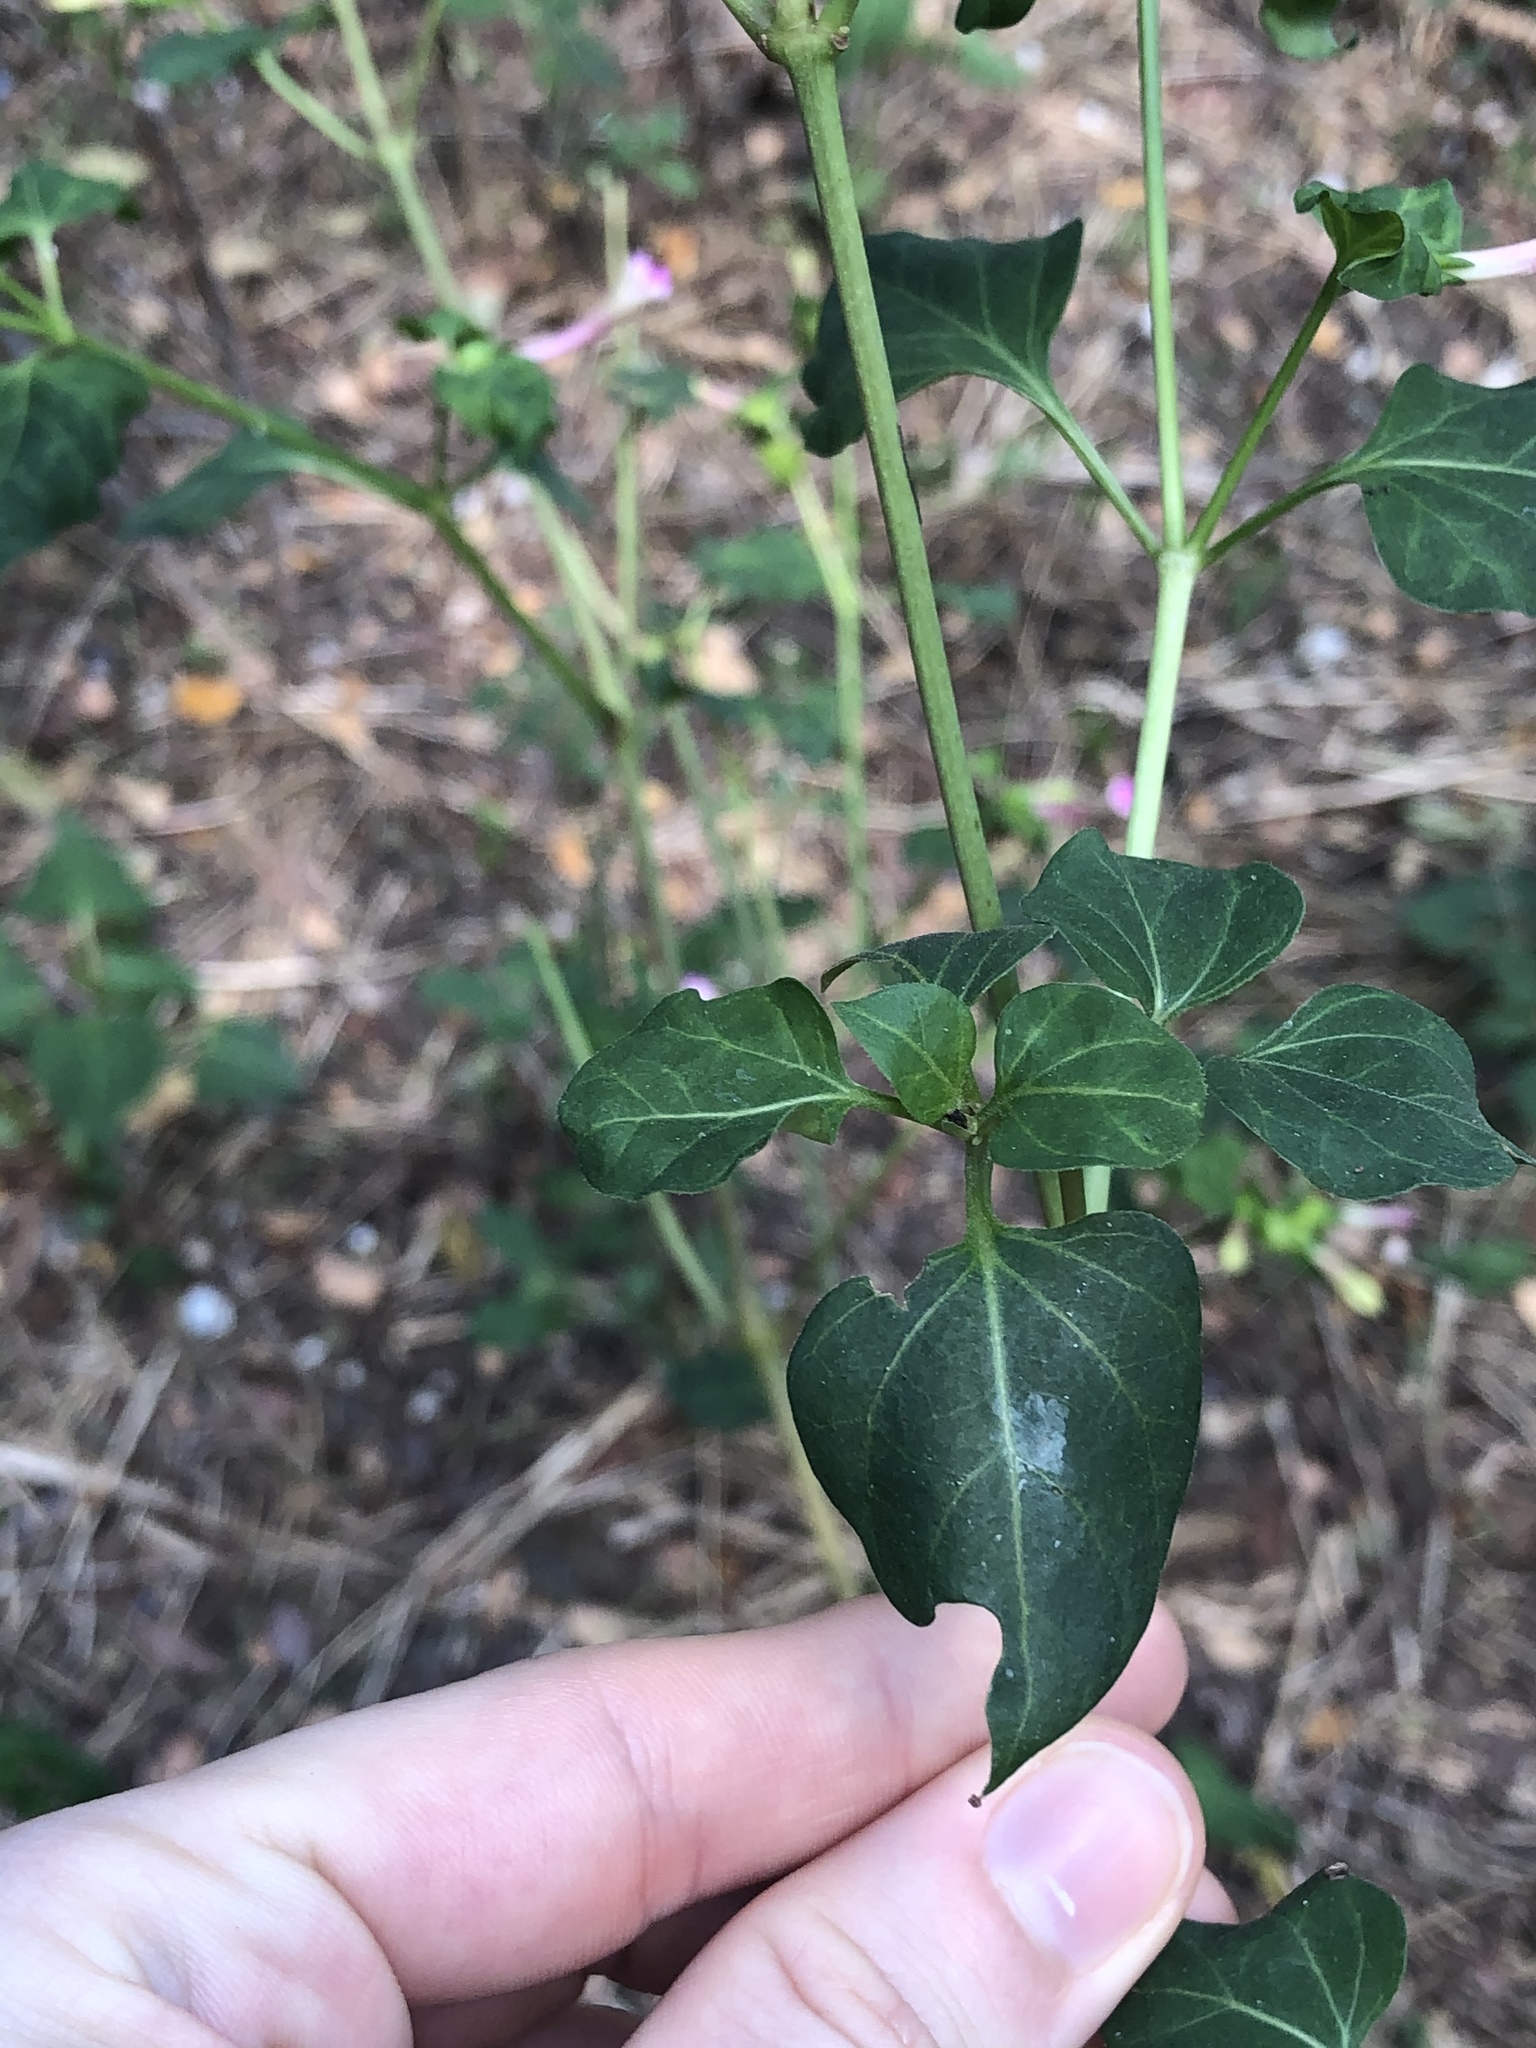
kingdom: Plantae
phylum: Tracheophyta
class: Magnoliopsida
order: Caryophyllales
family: Nyctaginaceae
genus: Mirabilis
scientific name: Mirabilis jalapa
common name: Marvel-of-peru
